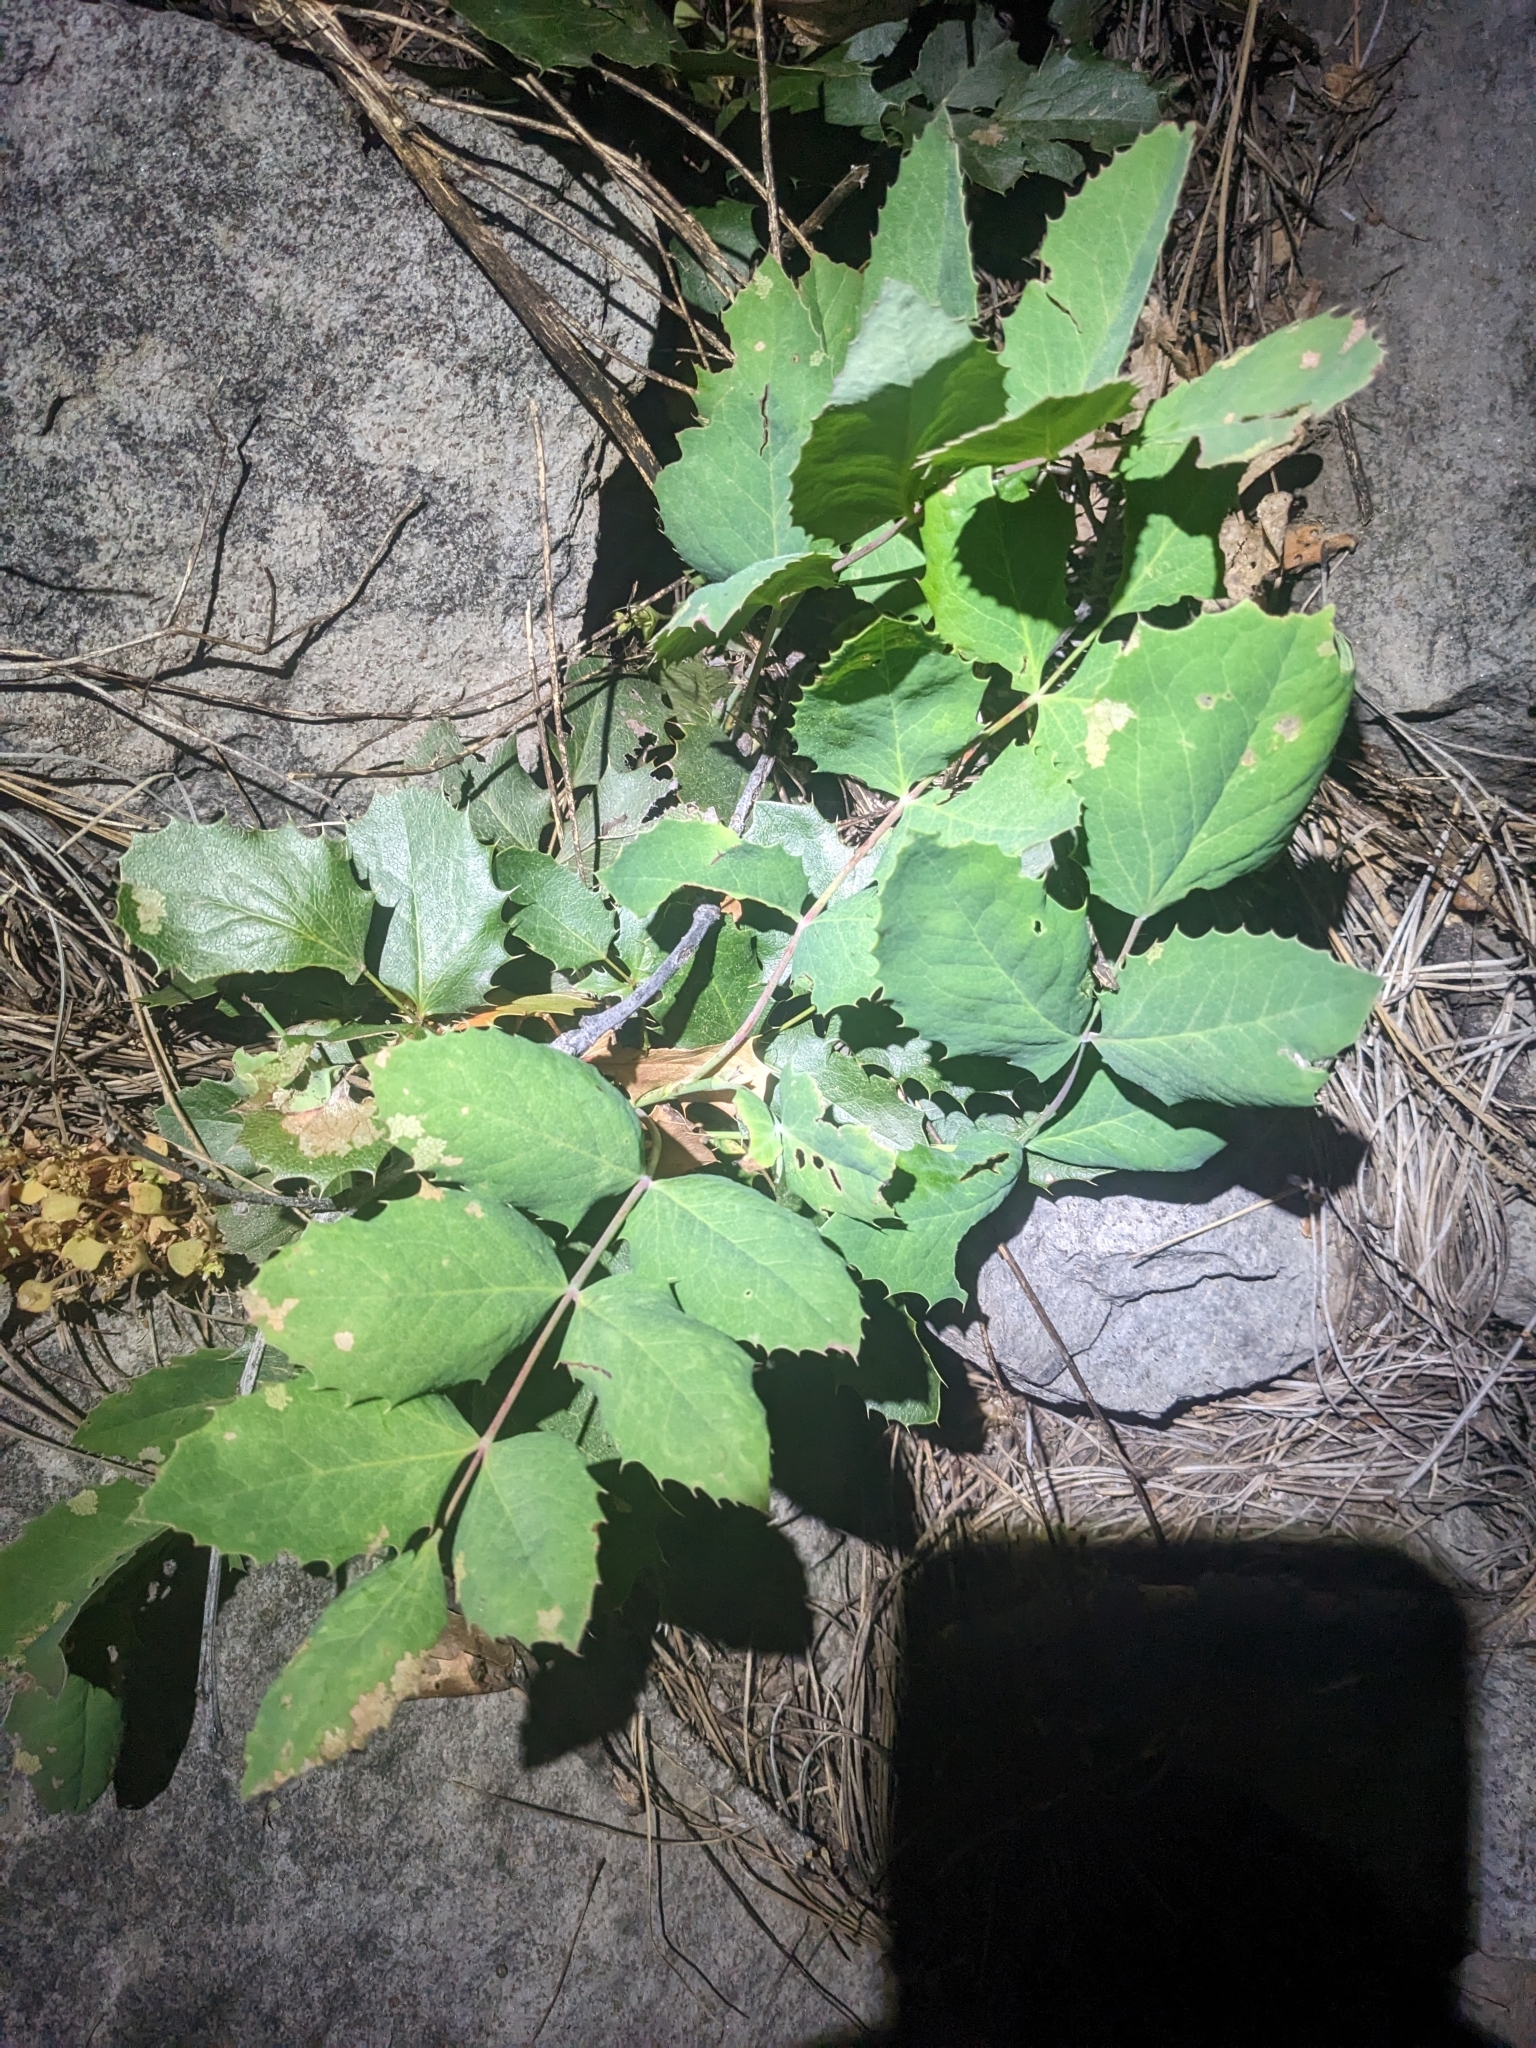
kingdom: Plantae
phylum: Tracheophyta
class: Magnoliopsida
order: Ranunculales
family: Berberidaceae
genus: Mahonia
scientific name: Mahonia repens
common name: Creeping oregon-grape
